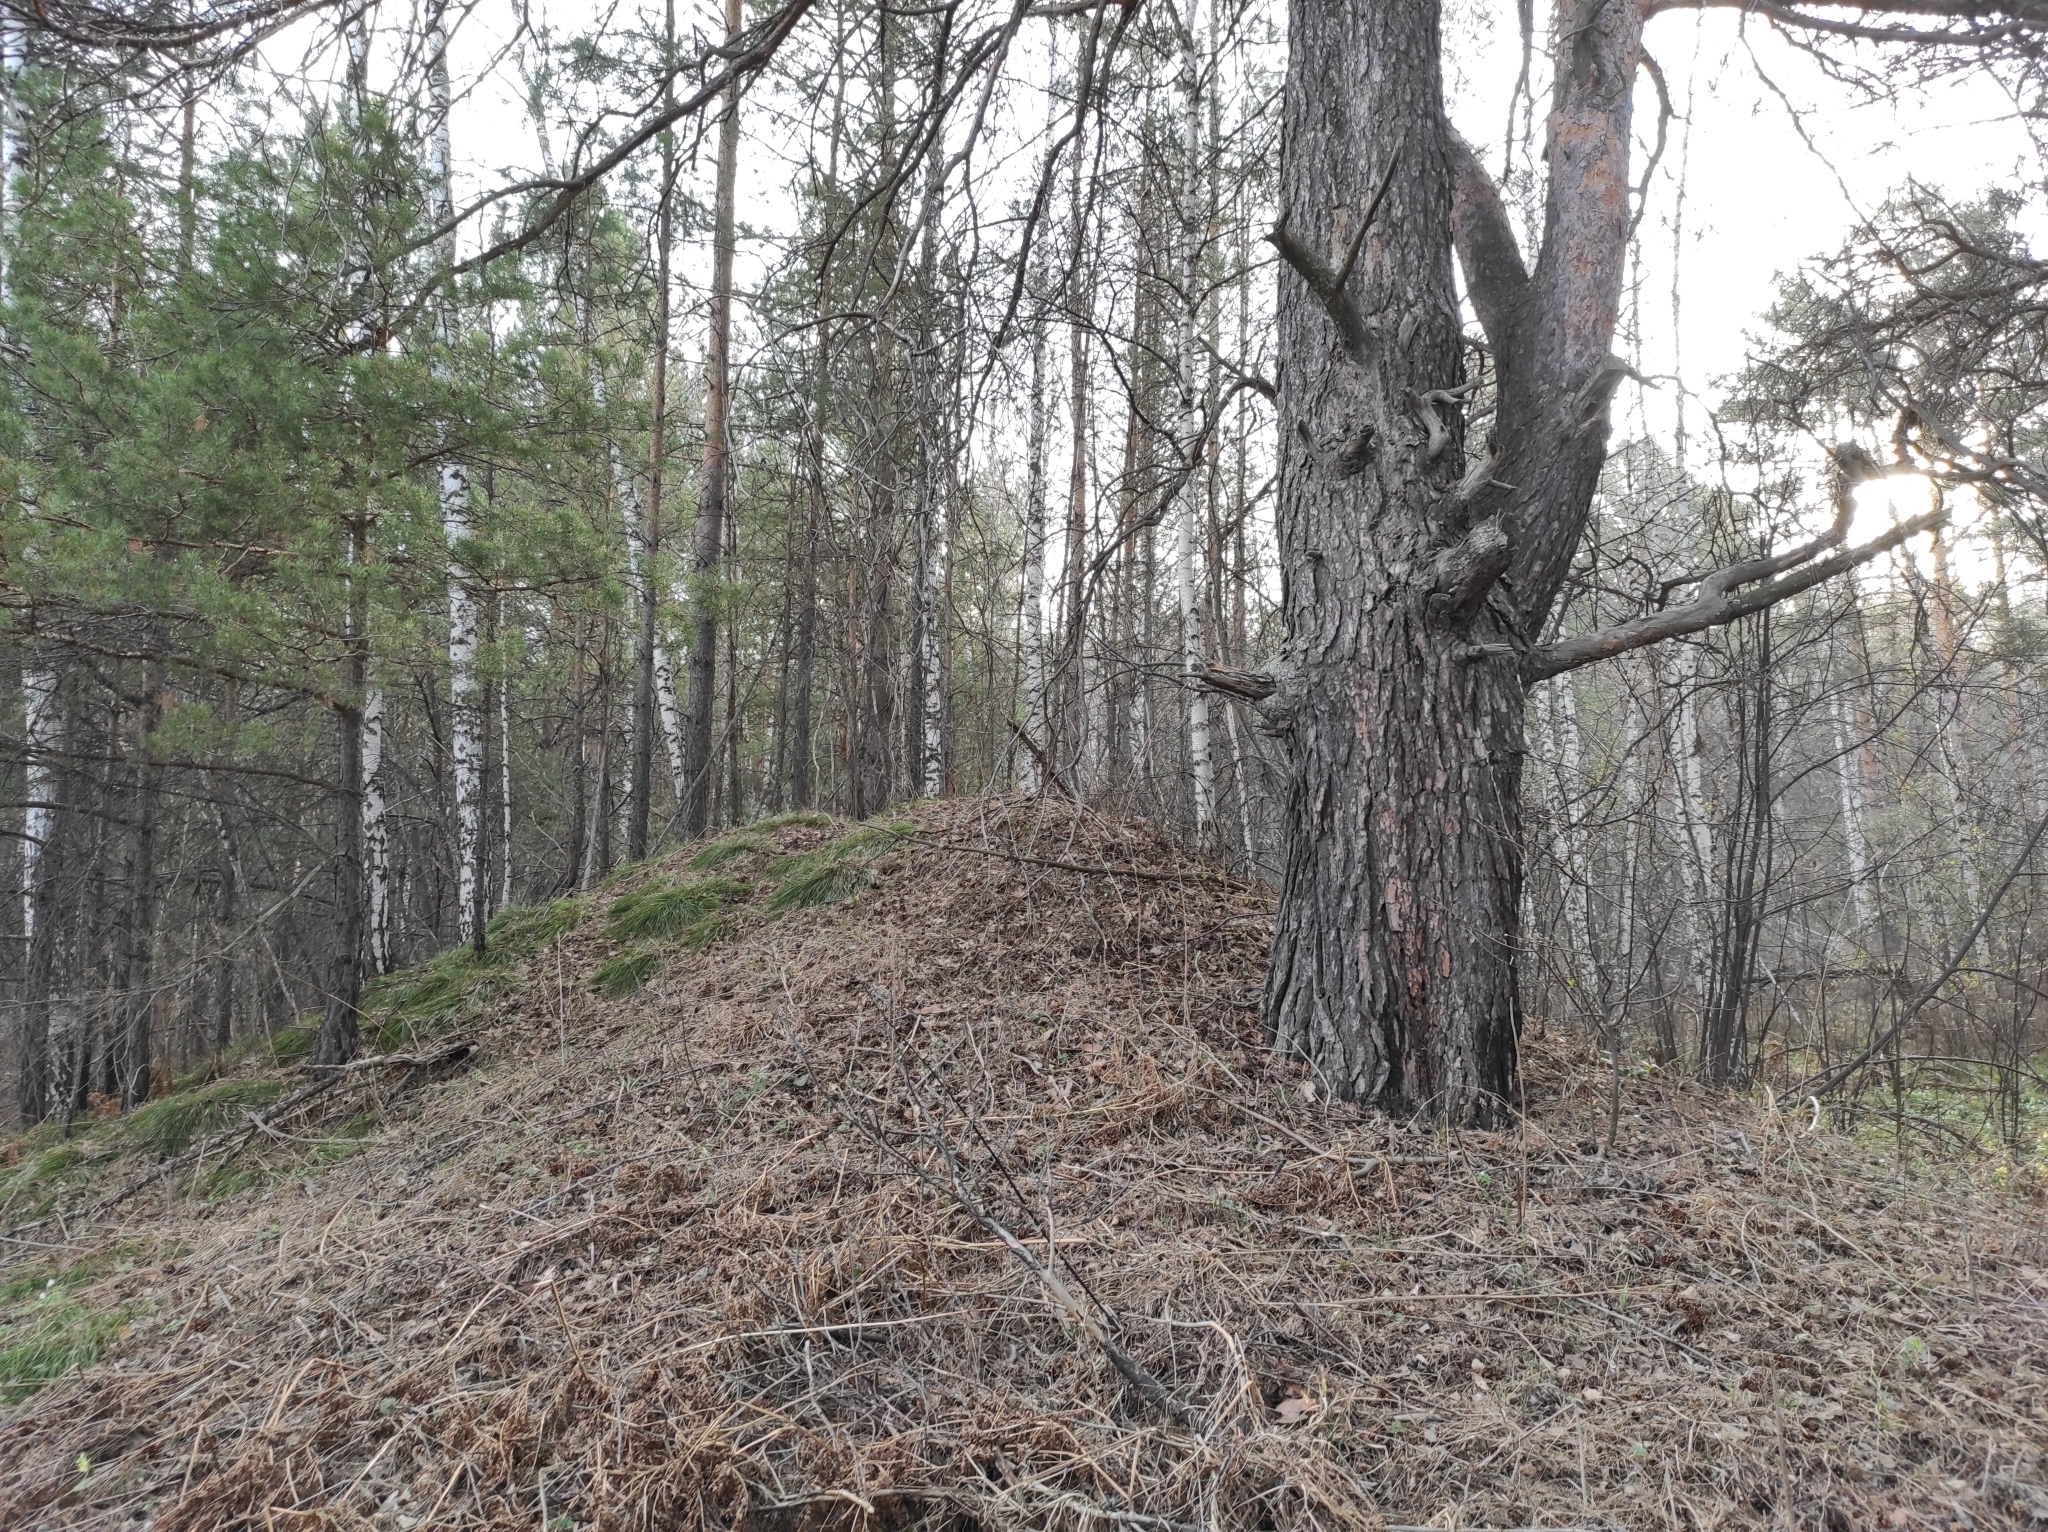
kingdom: Plantae
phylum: Tracheophyta
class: Pinopsida
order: Pinales
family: Pinaceae
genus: Pinus
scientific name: Pinus sylvestris
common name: Scots pine
